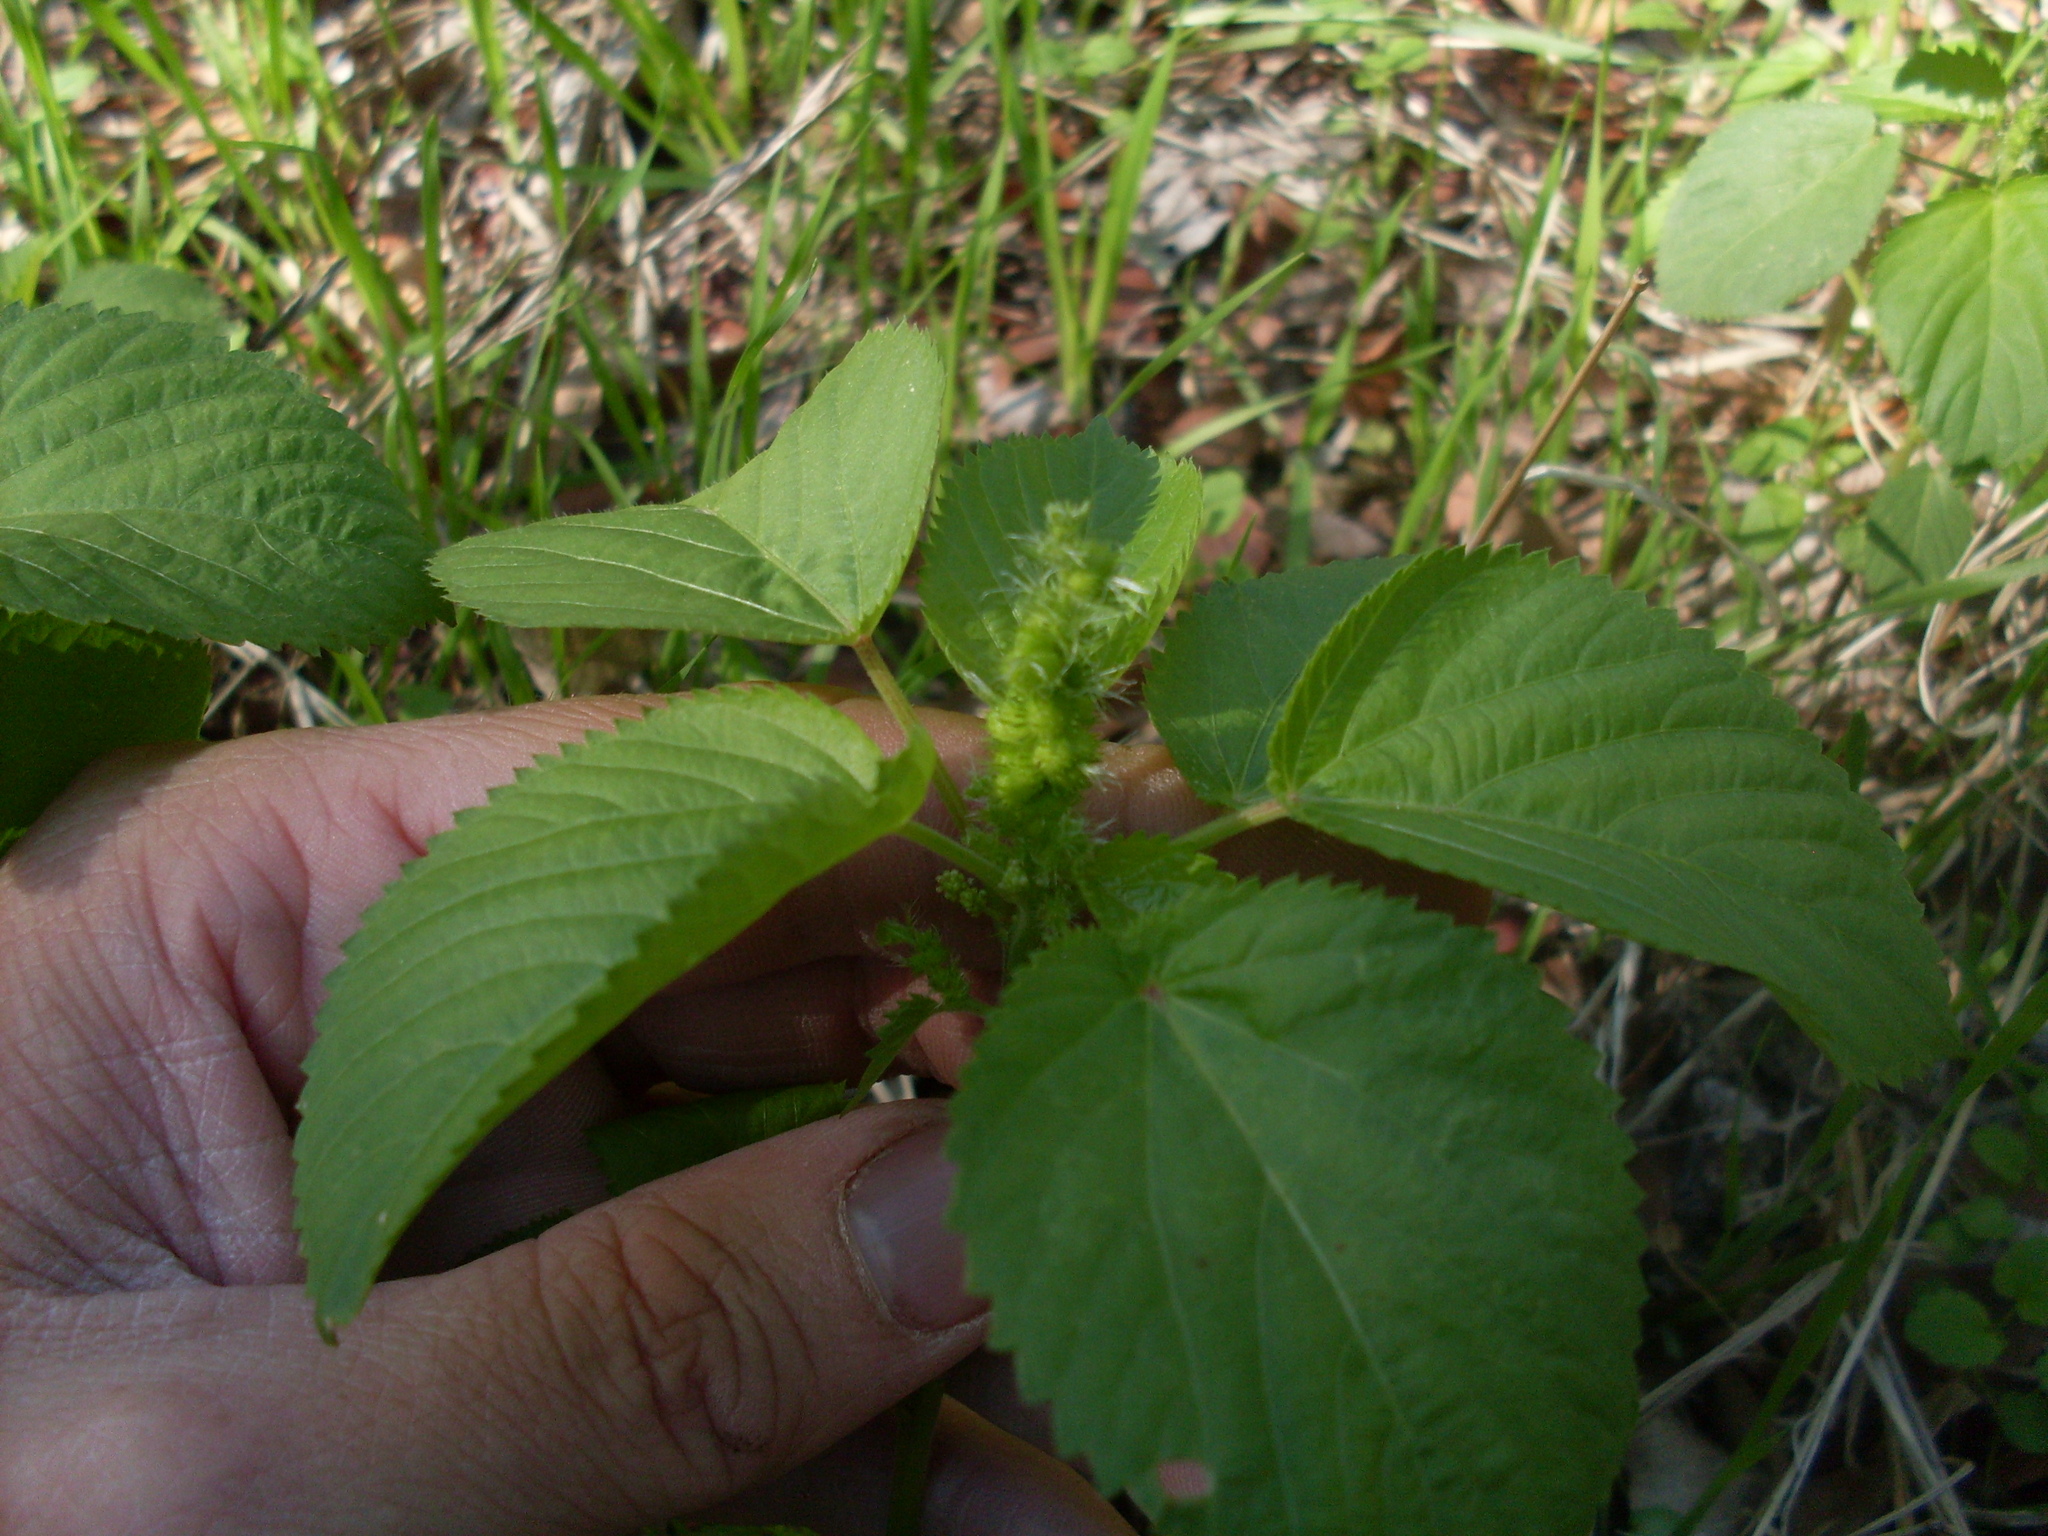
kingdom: Plantae
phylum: Tracheophyta
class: Magnoliopsida
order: Malpighiales
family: Euphorbiaceae
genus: Acalypha
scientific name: Acalypha ostryifolia
